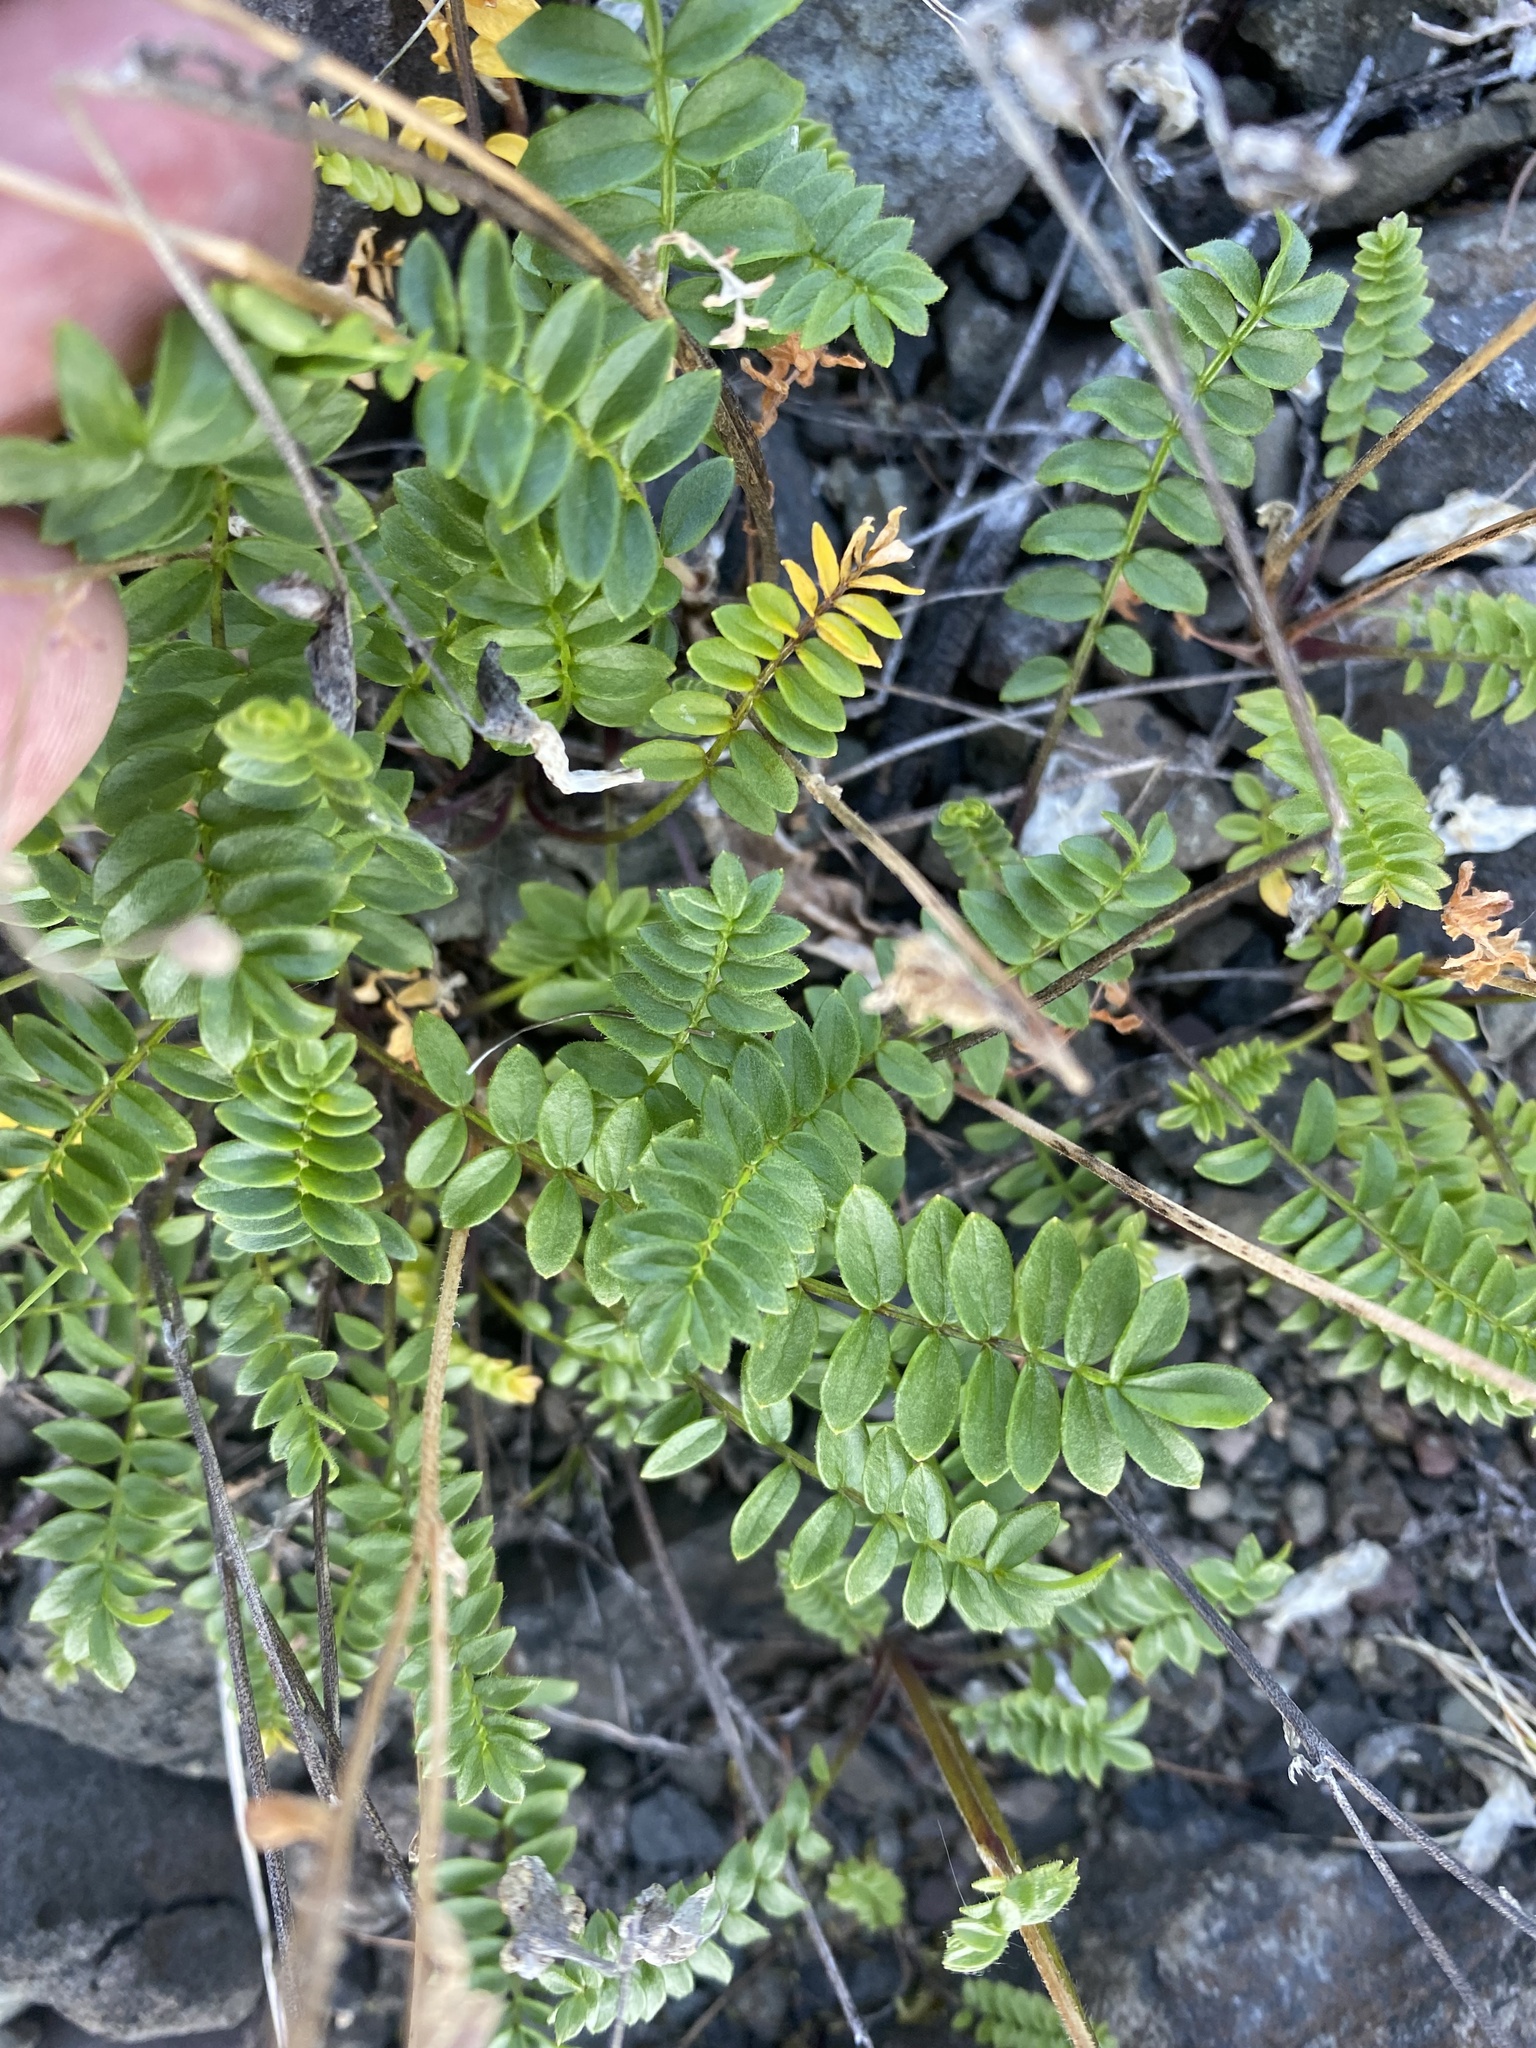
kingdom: Plantae
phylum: Tracheophyta
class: Magnoliopsida
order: Ericales
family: Polemoniaceae
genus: Polemonium
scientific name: Polemonium boreale
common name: Boreal jacob's-ladder
